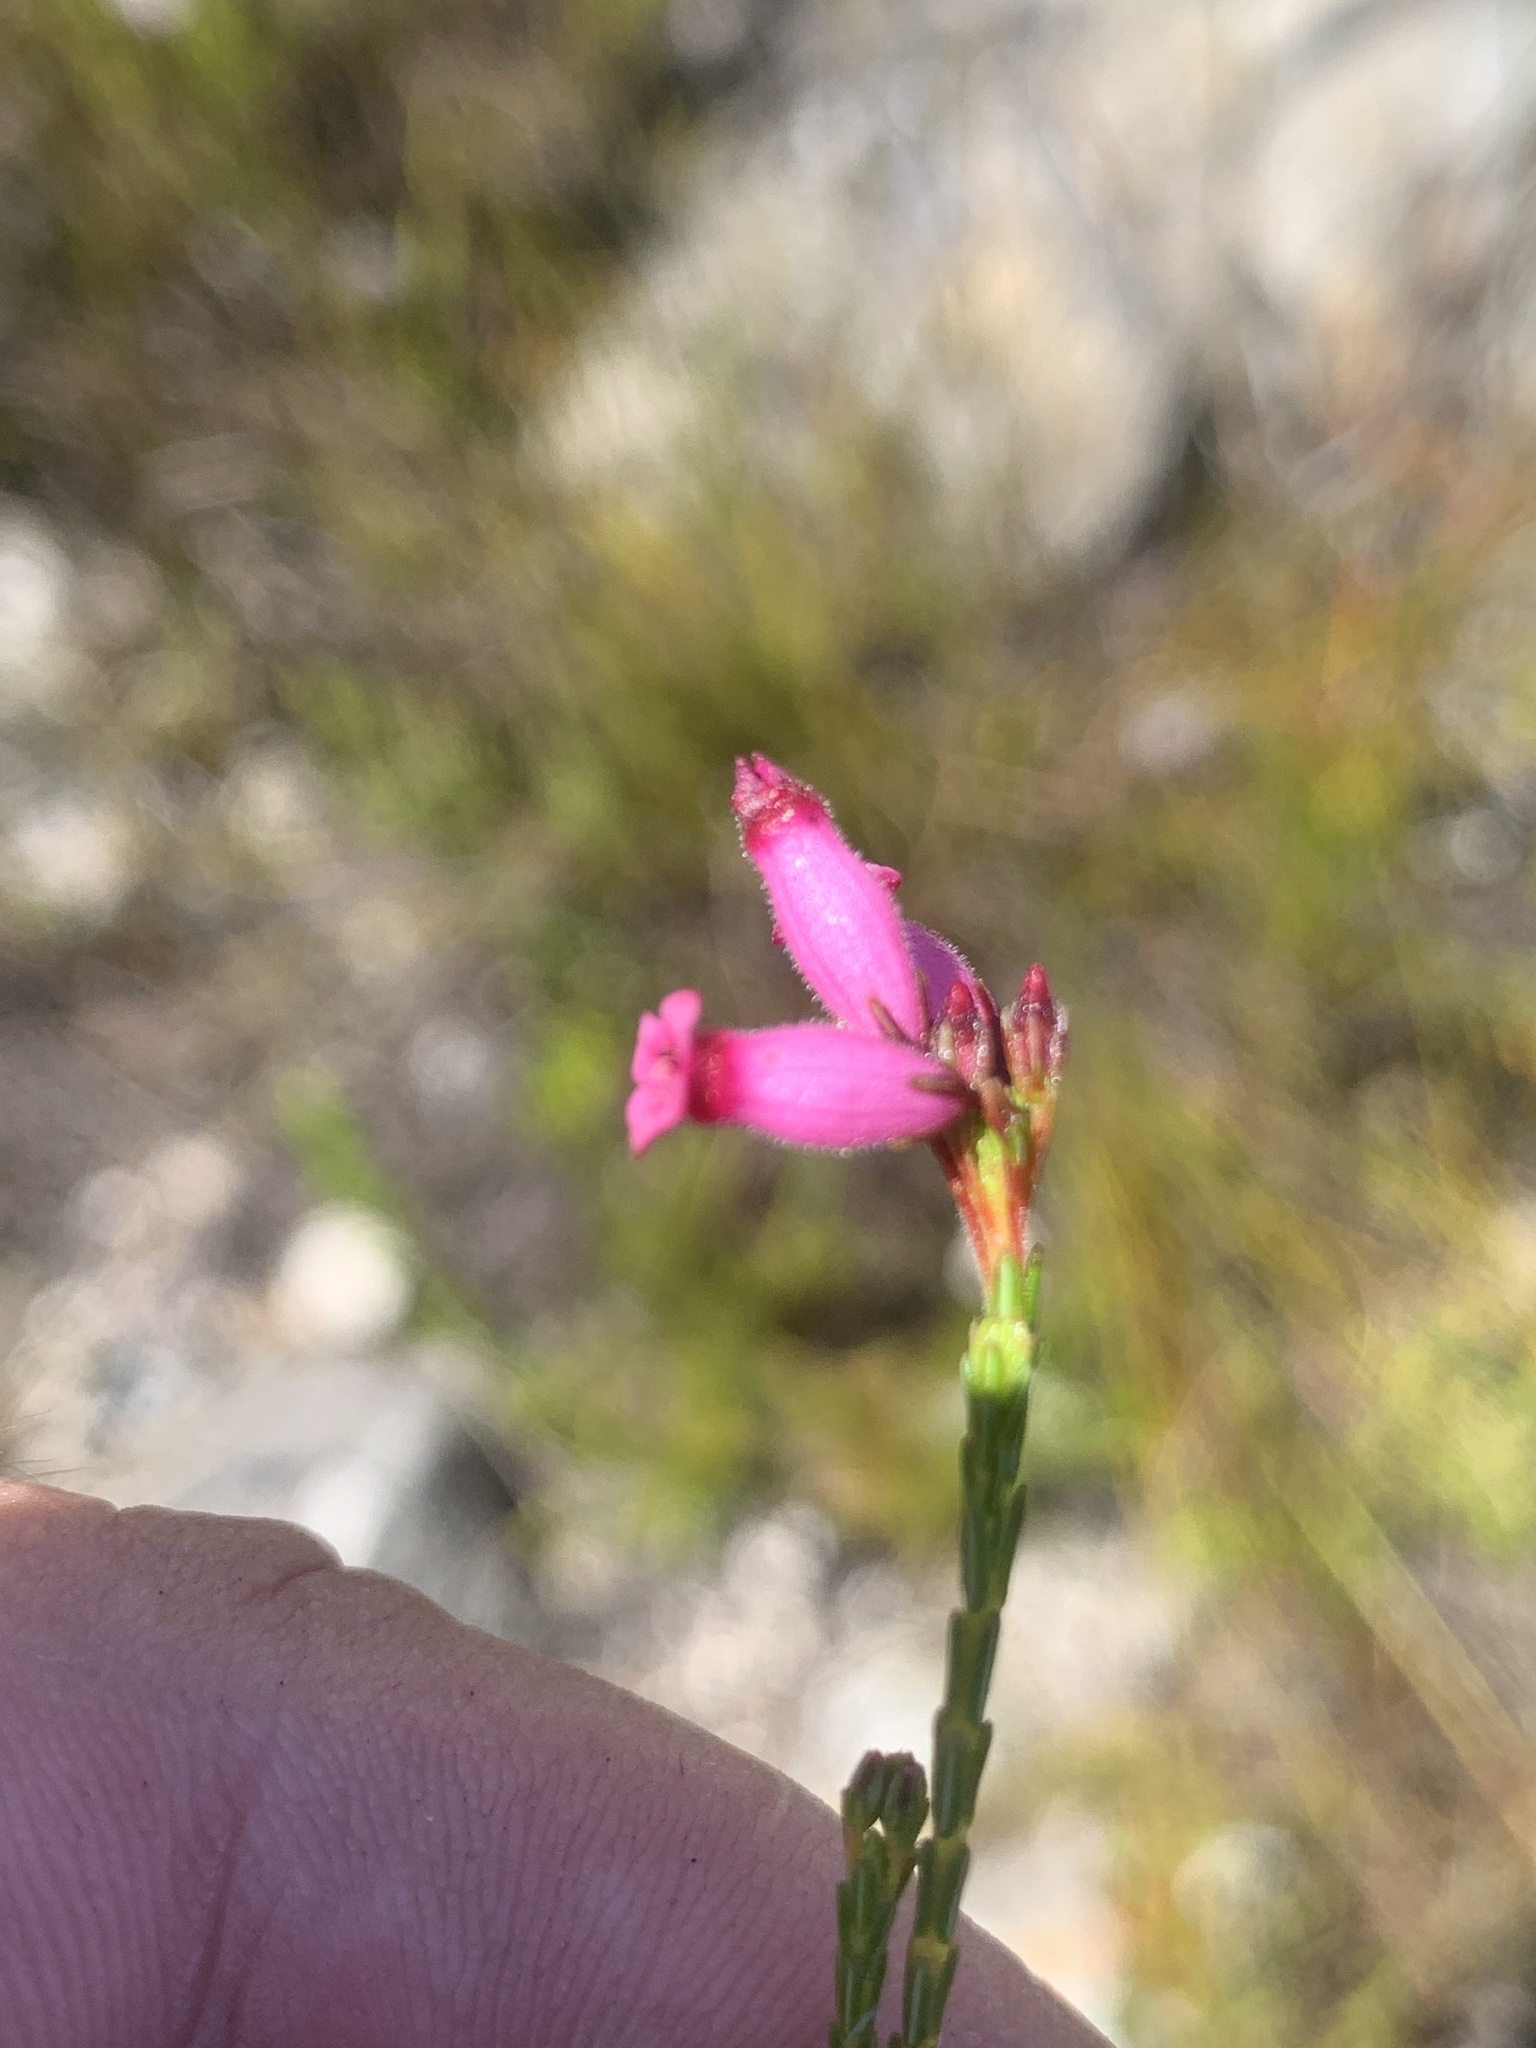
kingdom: Plantae
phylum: Tracheophyta
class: Magnoliopsida
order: Ericales
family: Ericaceae
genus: Erica
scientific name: Erica cristata
